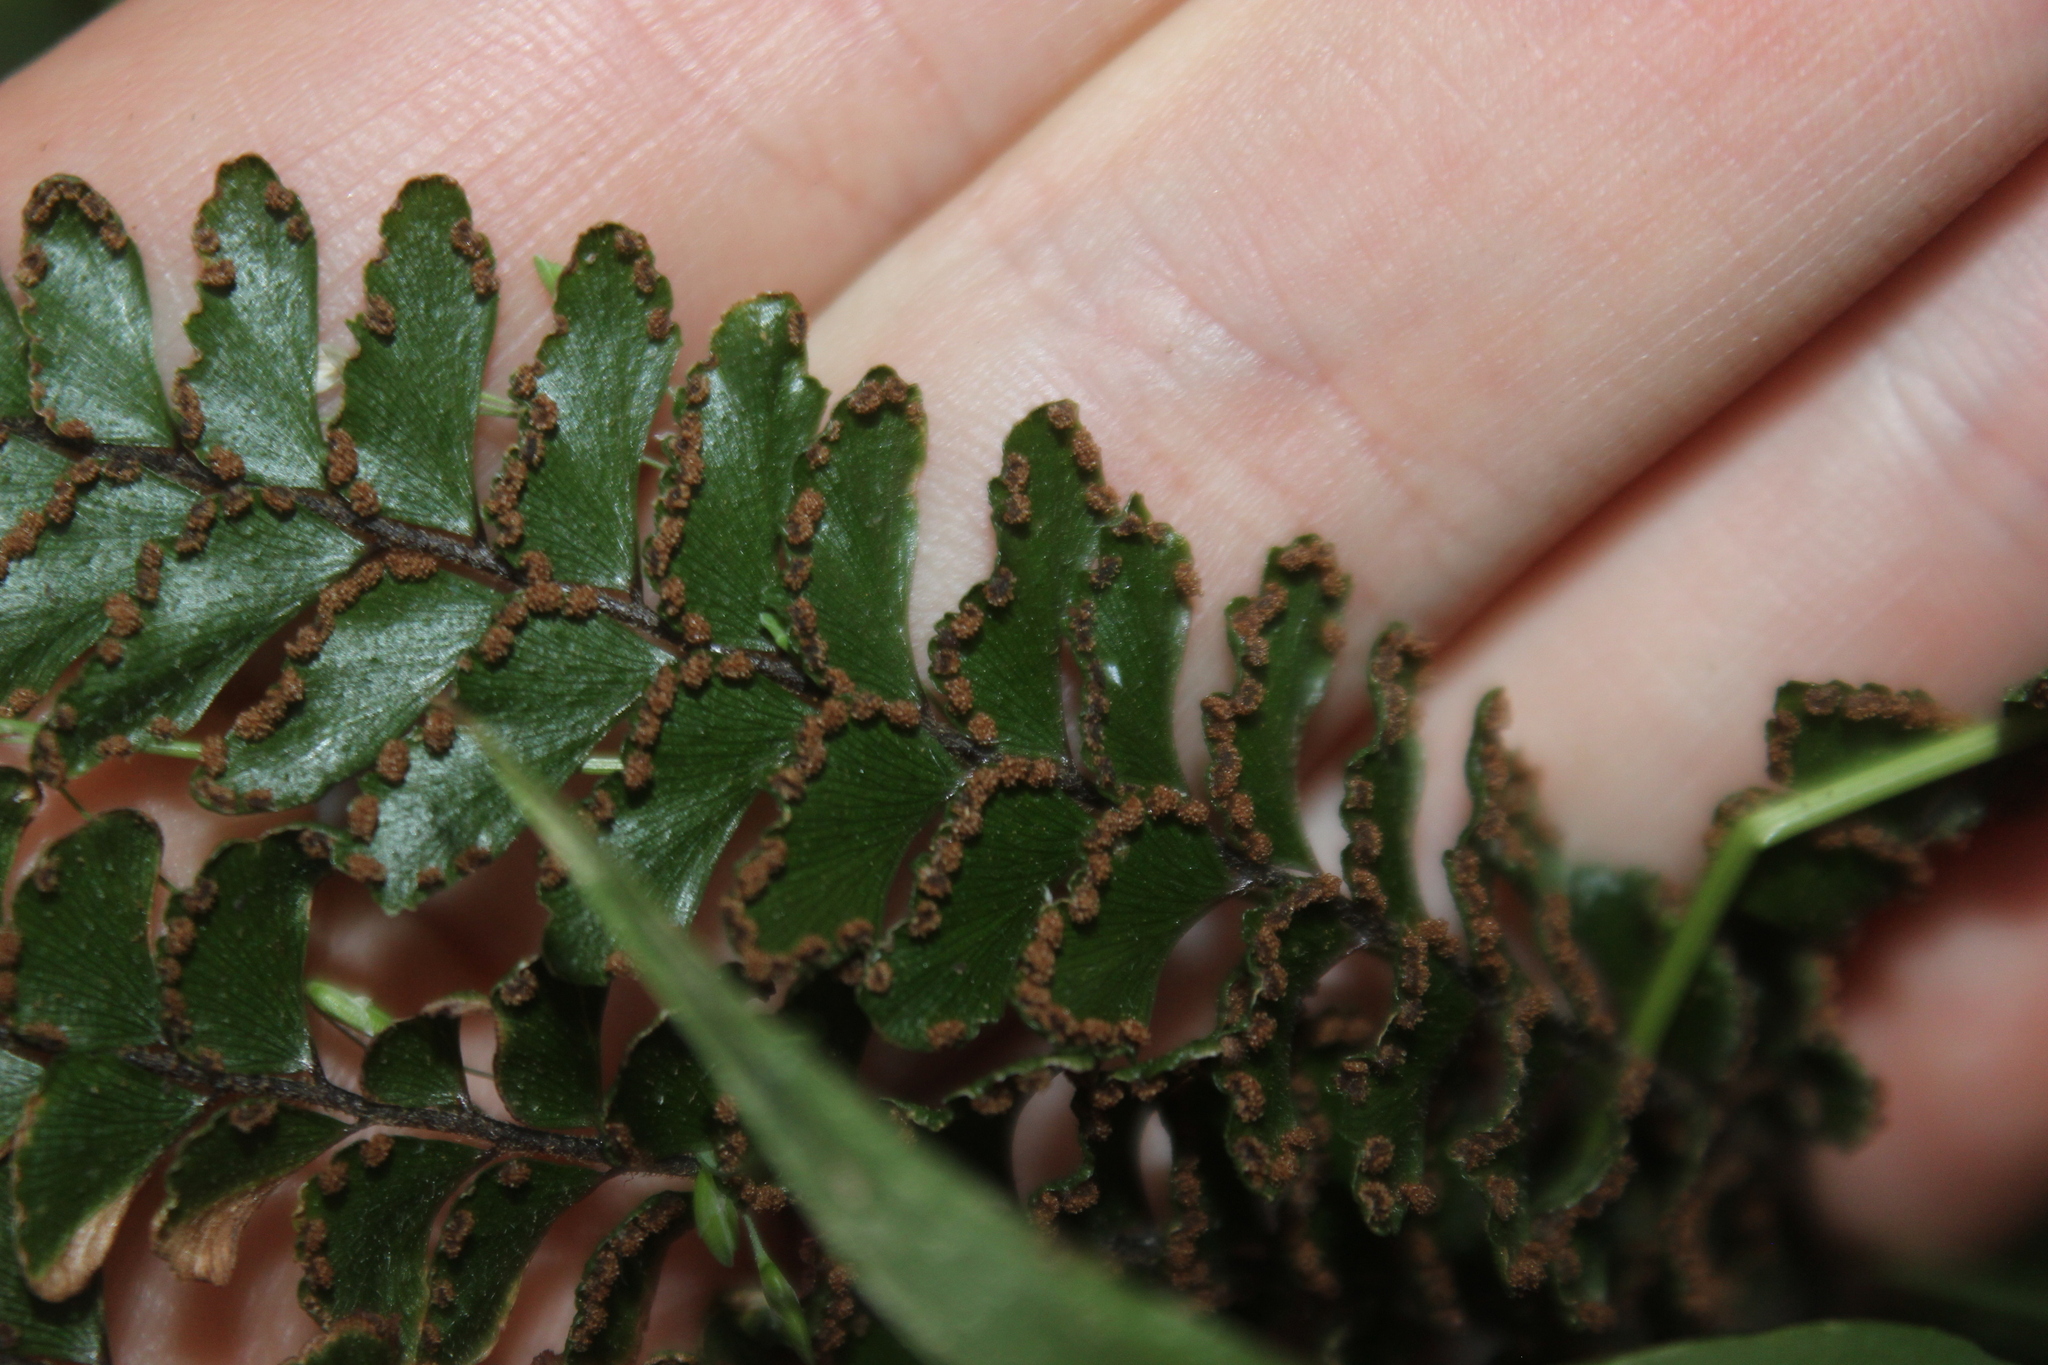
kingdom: Plantae
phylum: Tracheophyta
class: Polypodiopsida
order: Polypodiales
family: Pteridaceae
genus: Adiantum
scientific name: Adiantum hispidulum
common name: Rough maidenhair
